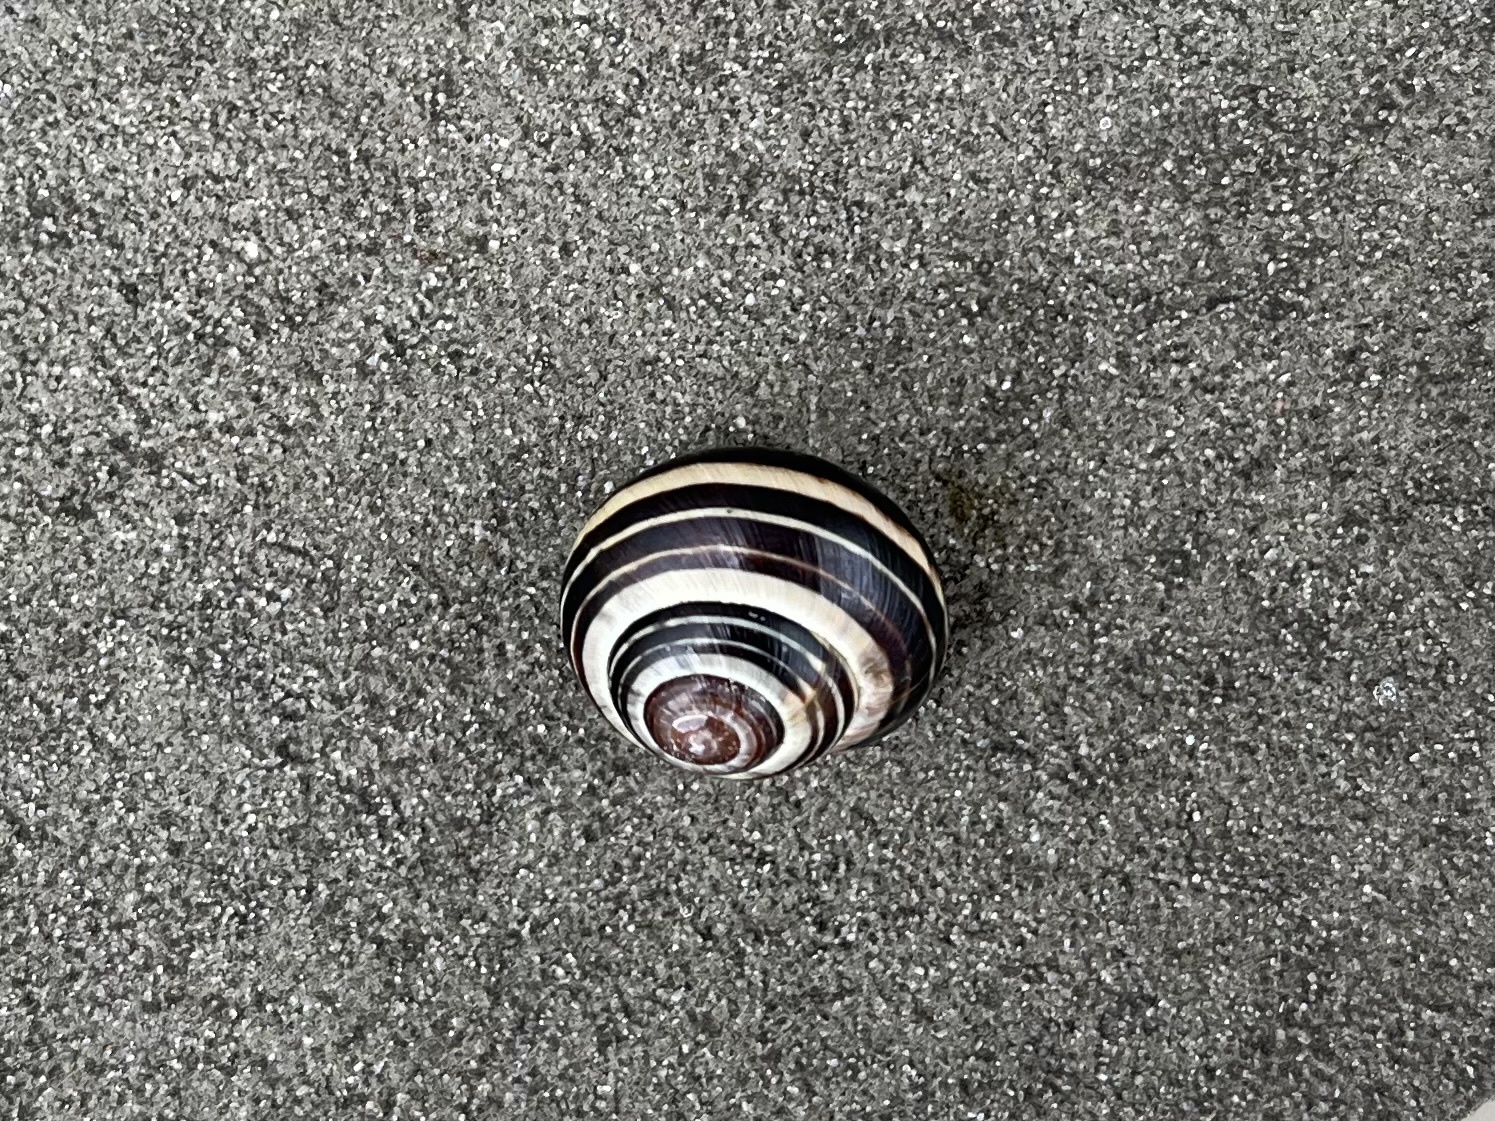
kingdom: Animalia
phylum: Mollusca
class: Gastropoda
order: Stylommatophora
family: Helicidae
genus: Cepaea
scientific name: Cepaea nemoralis
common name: Grovesnail
